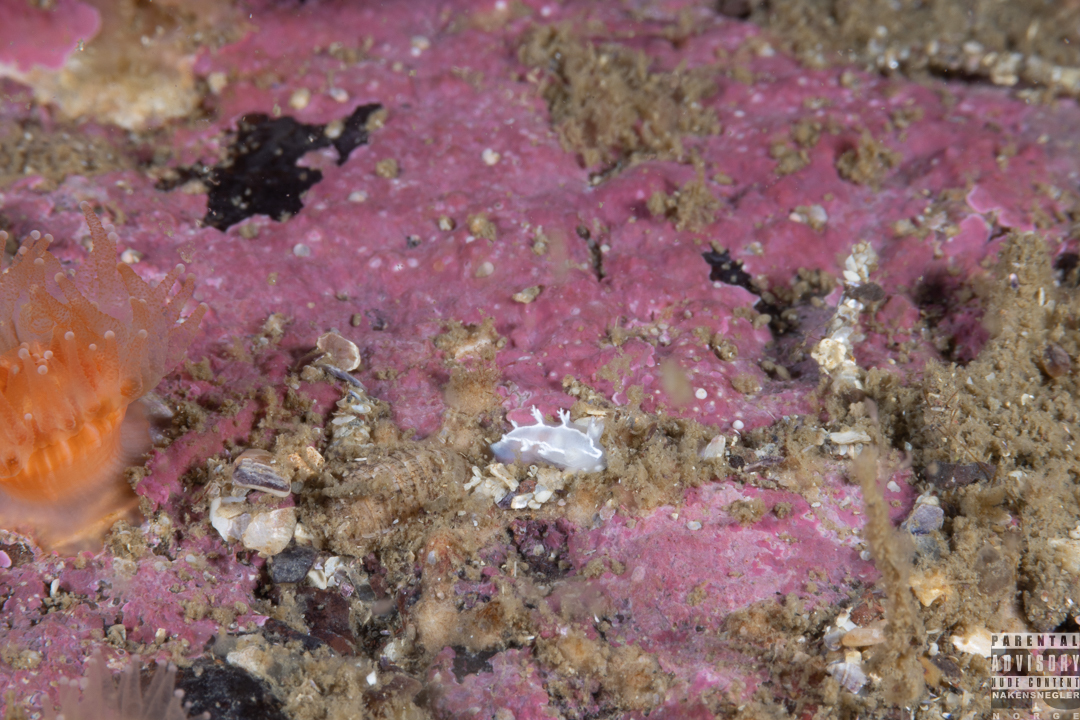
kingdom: Animalia
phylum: Mollusca
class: Gastropoda
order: Nudibranchia
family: Tritoniidae
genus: Duvaucelia
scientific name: Duvaucelia lineata
